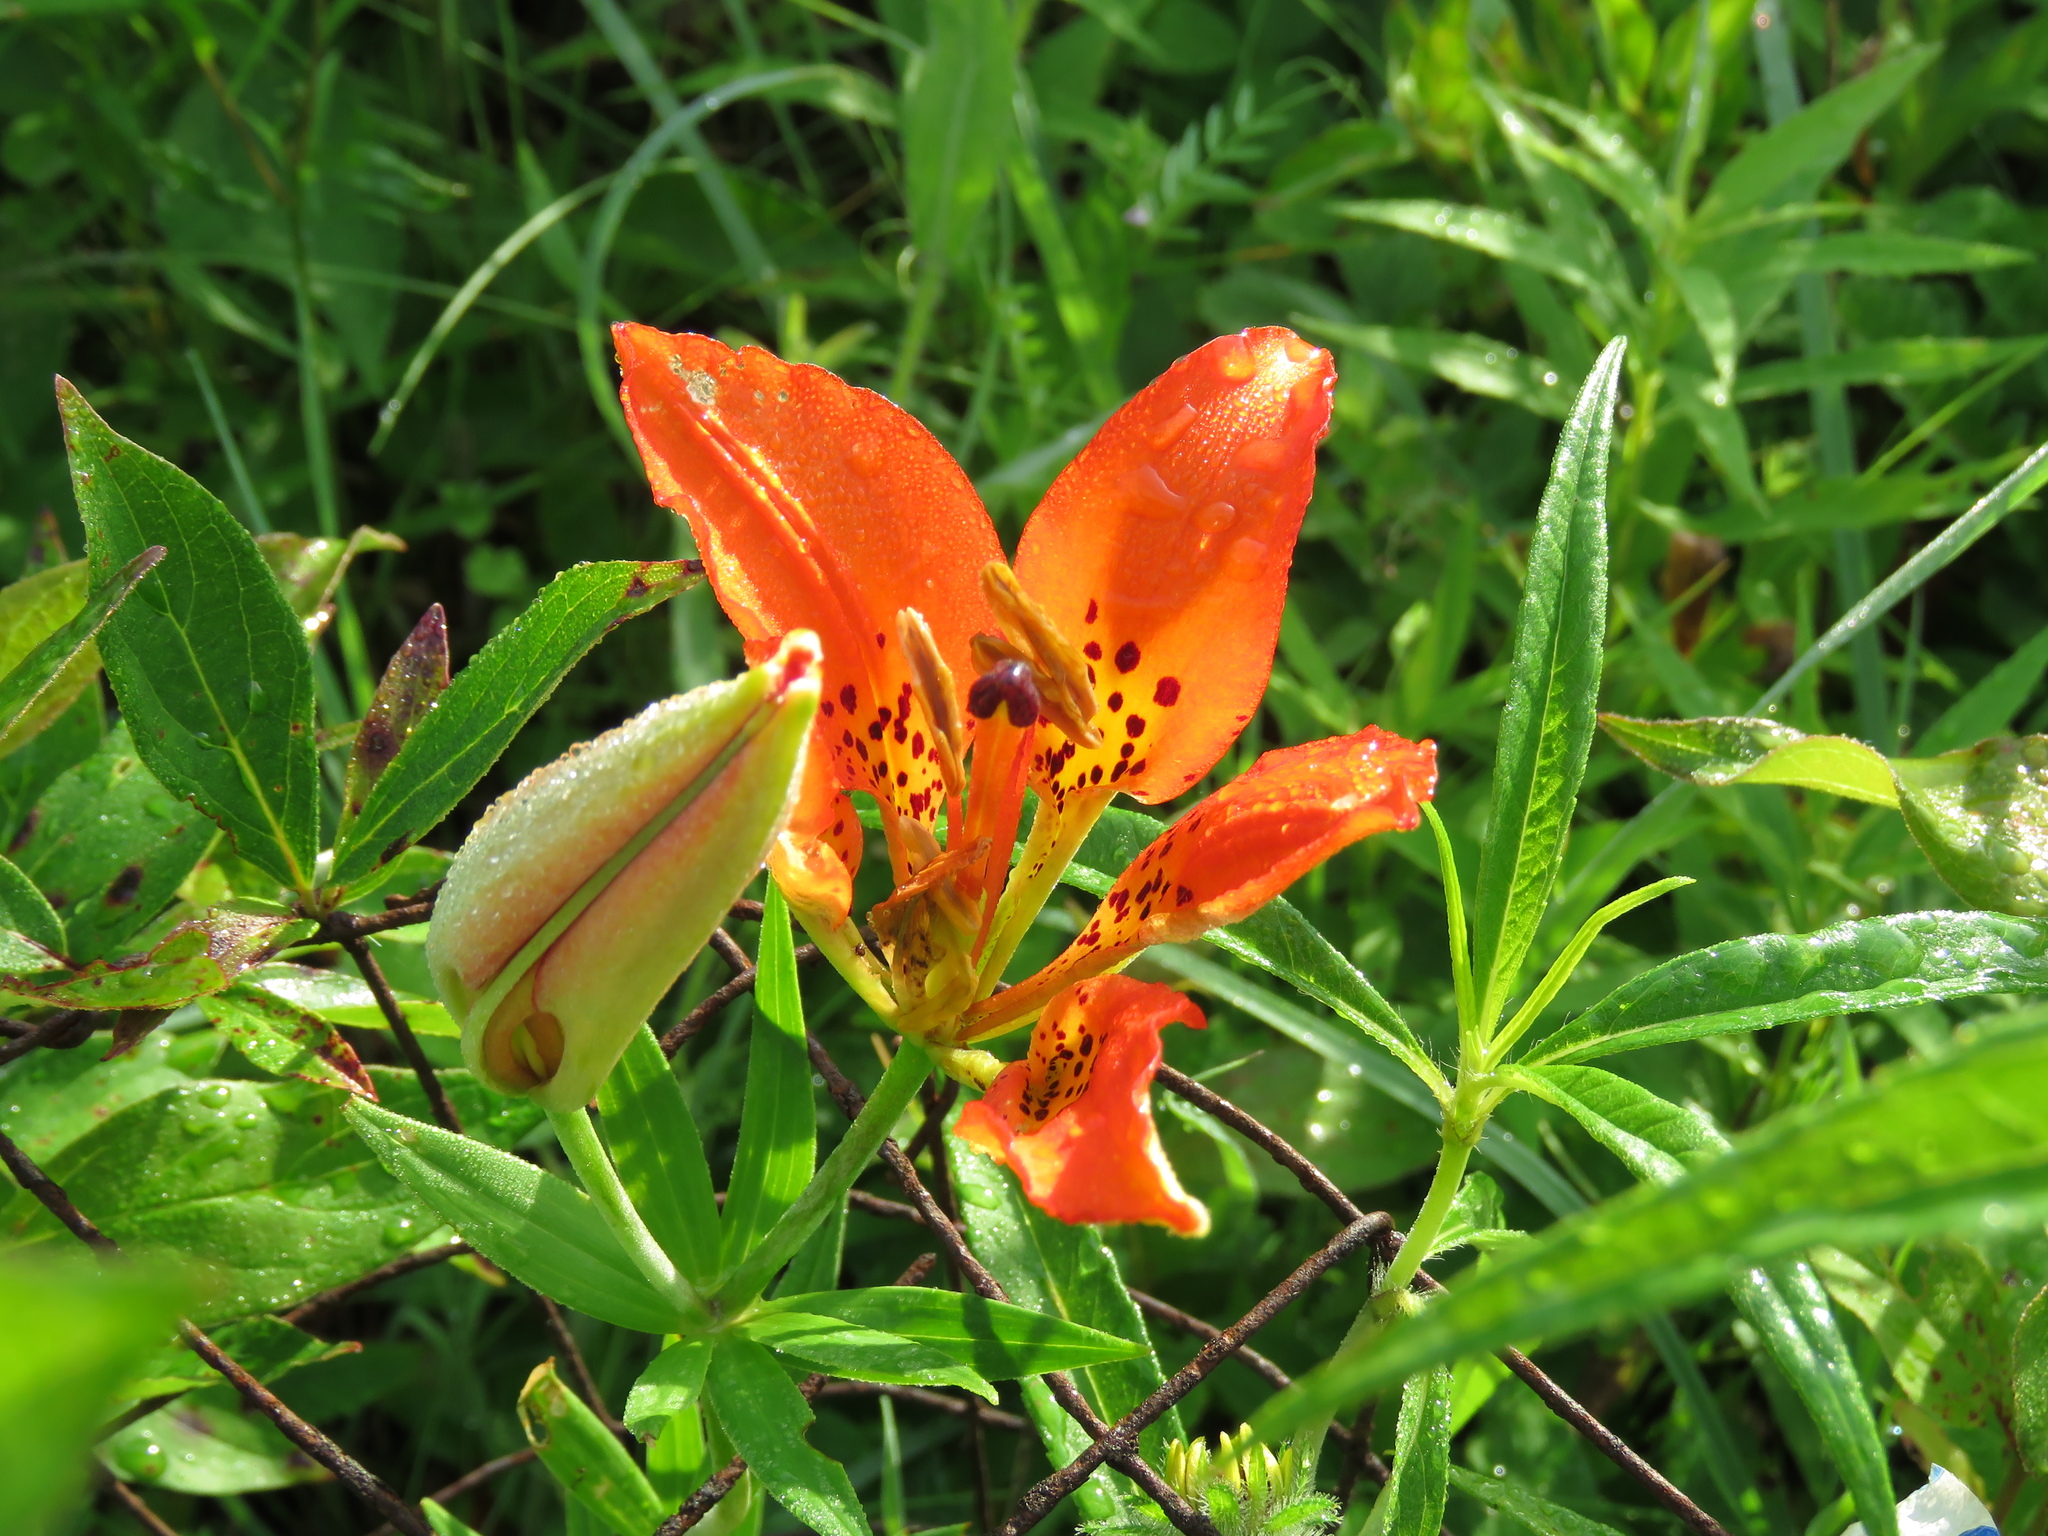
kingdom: Plantae
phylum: Tracheophyta
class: Liliopsida
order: Liliales
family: Liliaceae
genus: Lilium
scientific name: Lilium philadelphicum
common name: Red lily
